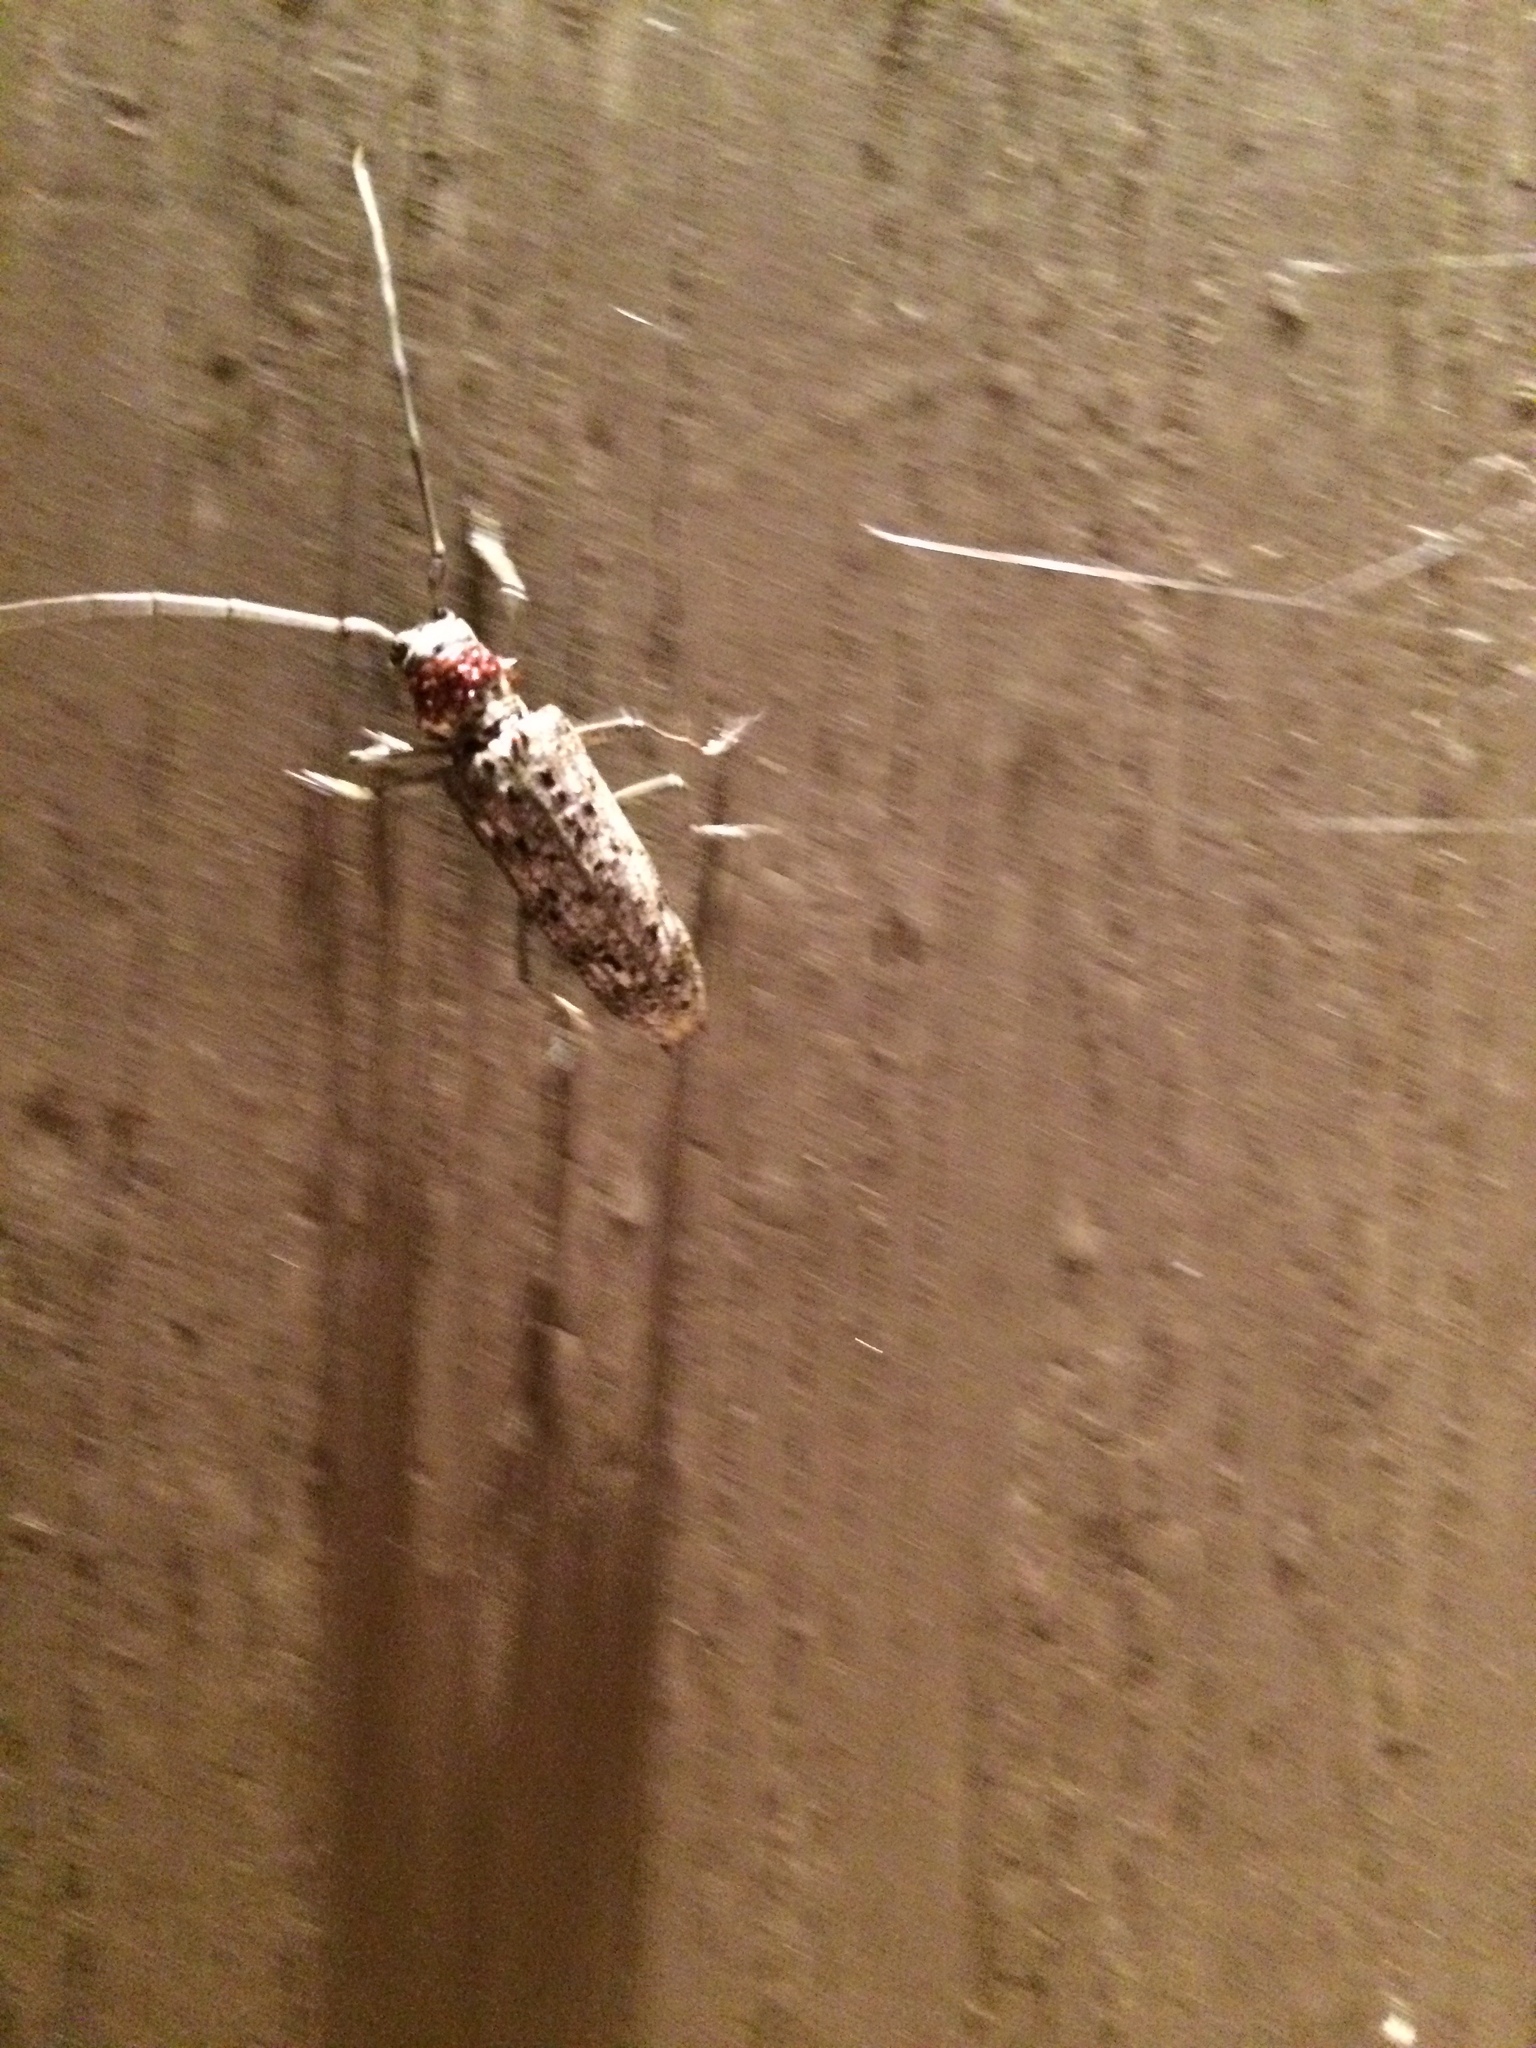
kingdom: Animalia
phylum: Arthropoda
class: Insecta
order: Coleoptera
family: Cerambycidae
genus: Monochamus
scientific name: Monochamus notatus
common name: Northeastern pine sawyer beetle
